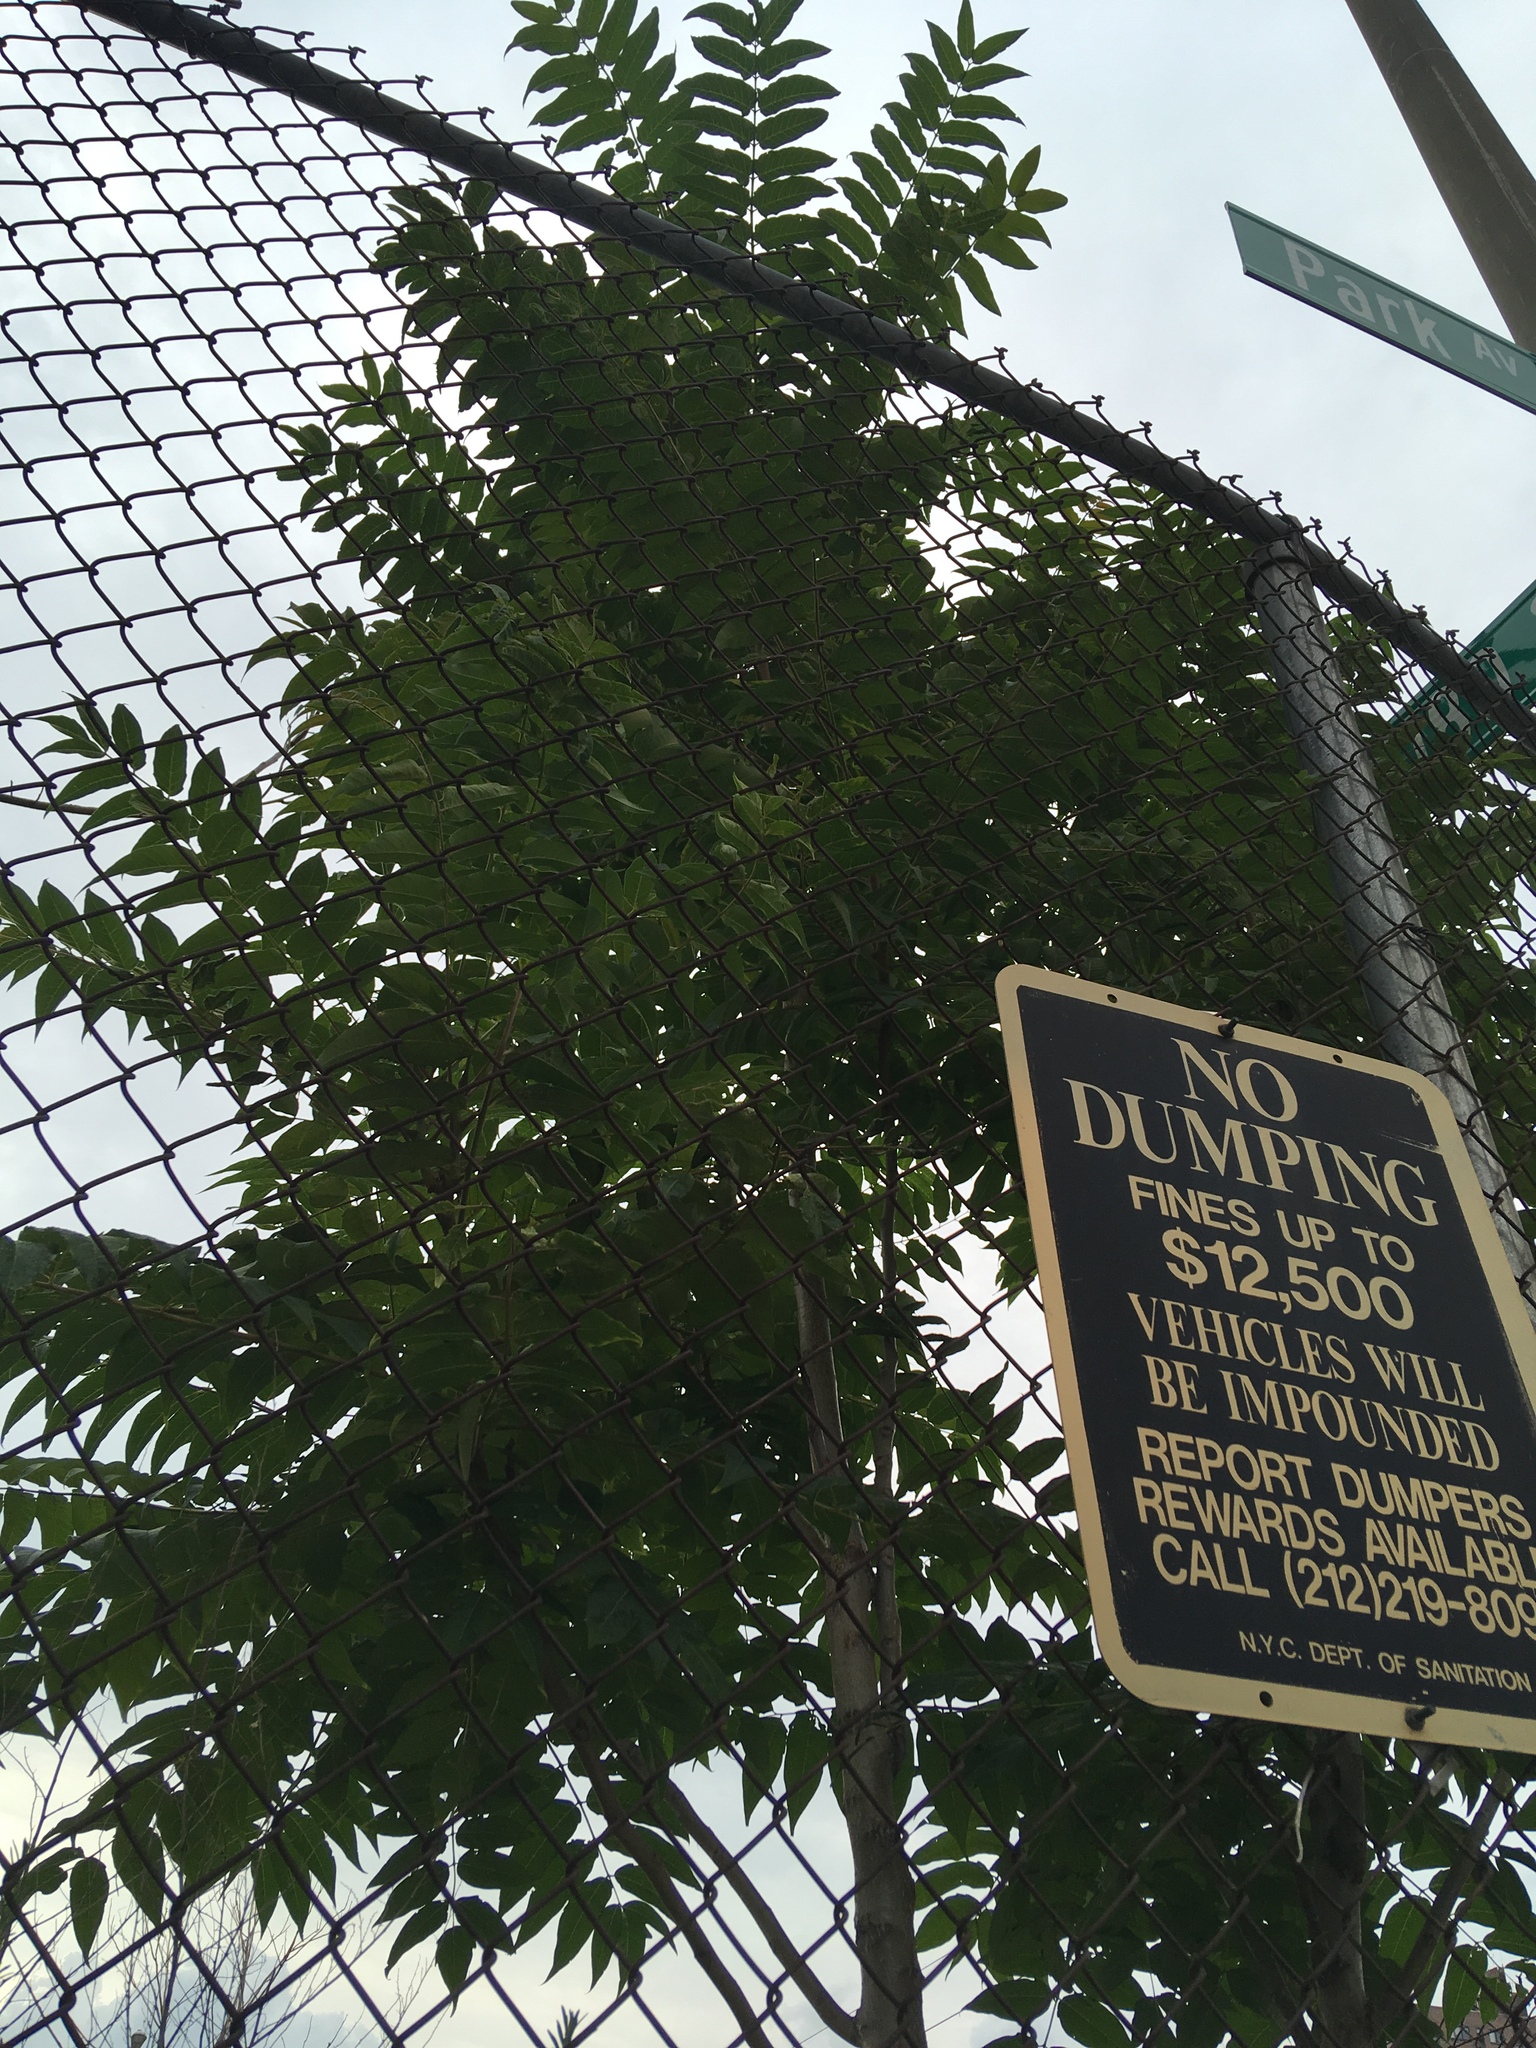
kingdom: Plantae
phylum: Tracheophyta
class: Magnoliopsida
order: Sapindales
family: Simaroubaceae
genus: Ailanthus
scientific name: Ailanthus altissima
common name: Tree-of-heaven
